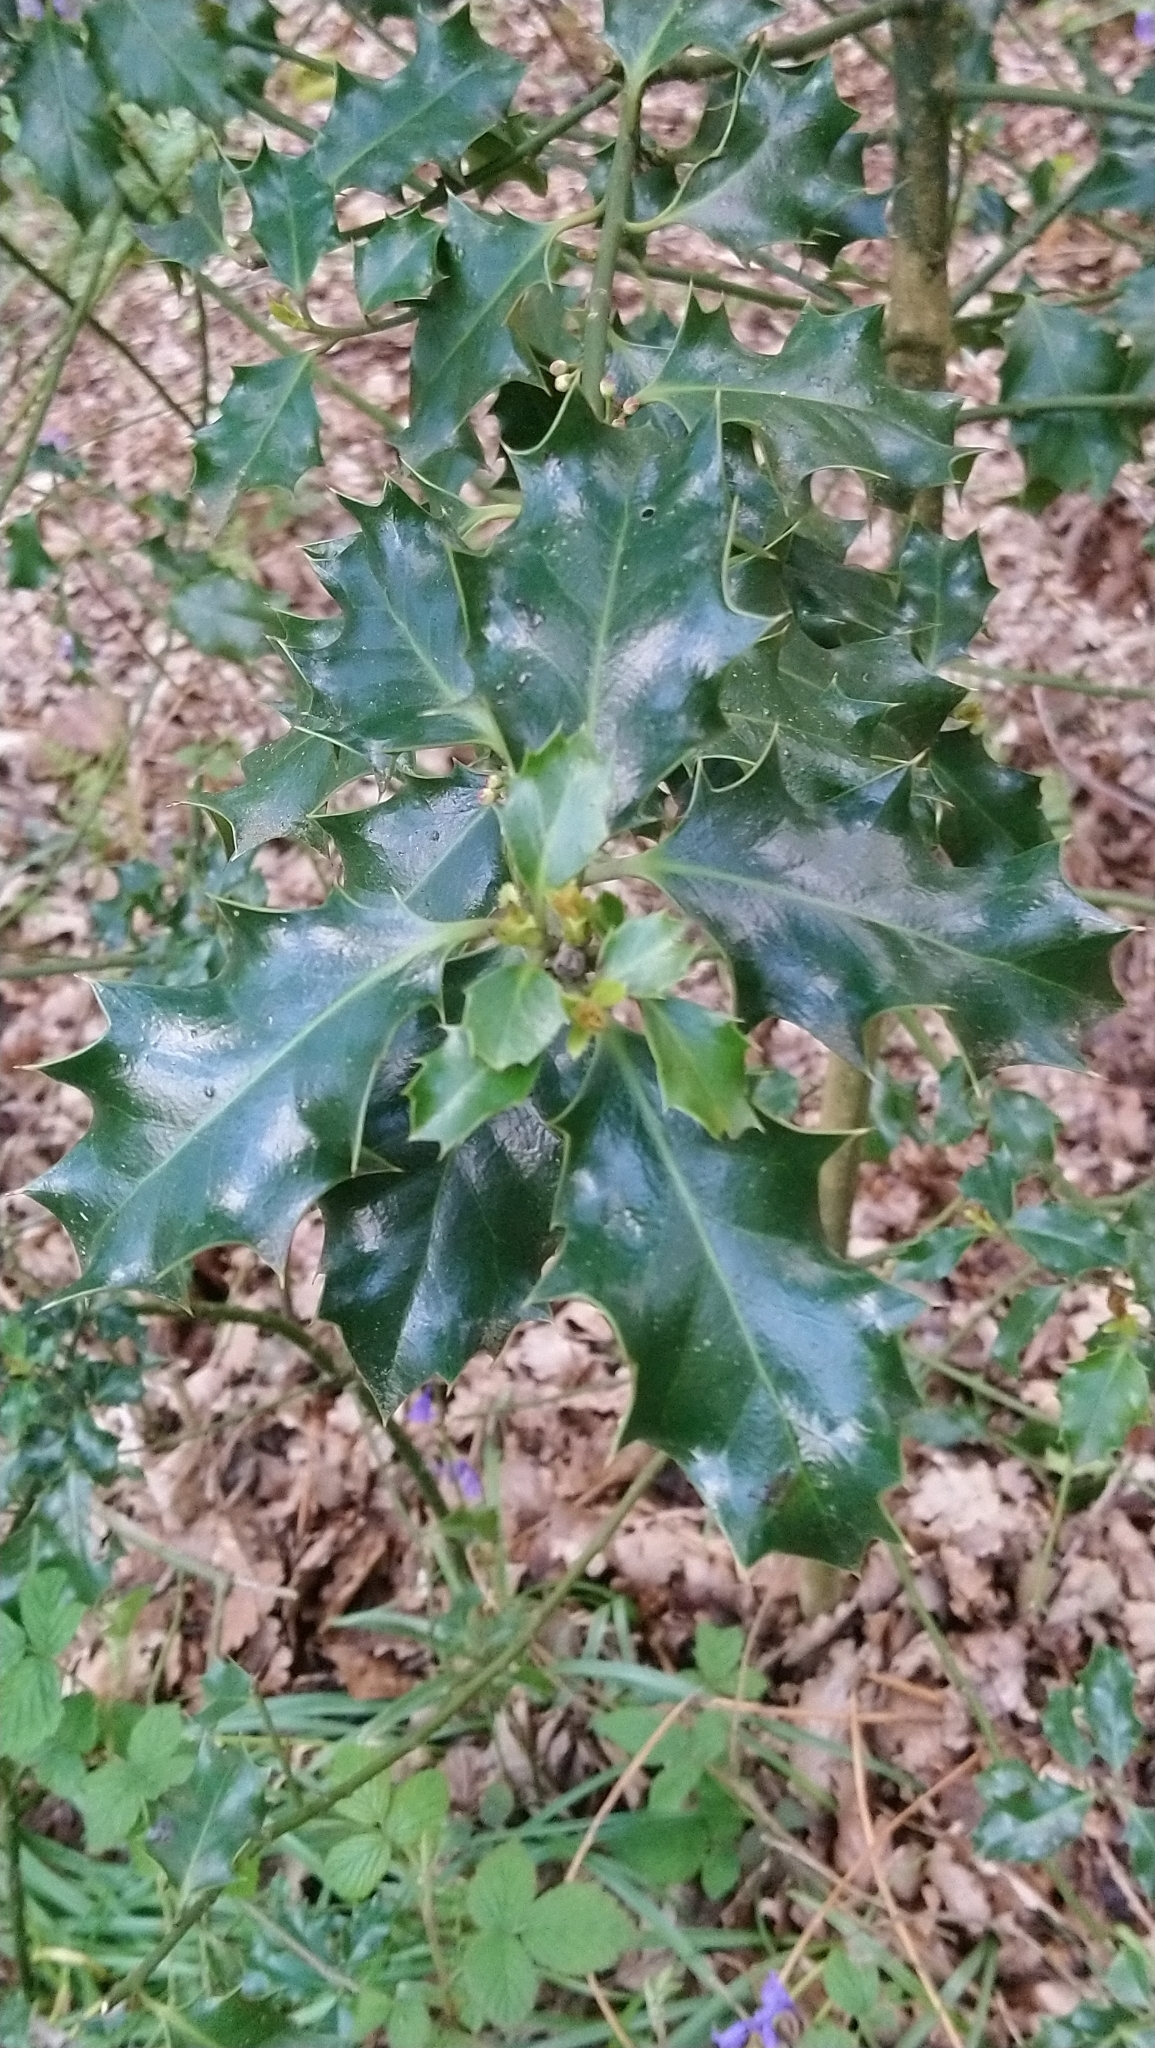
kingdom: Plantae
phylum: Tracheophyta
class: Magnoliopsida
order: Aquifoliales
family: Aquifoliaceae
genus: Ilex
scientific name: Ilex aquifolium
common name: English holly
